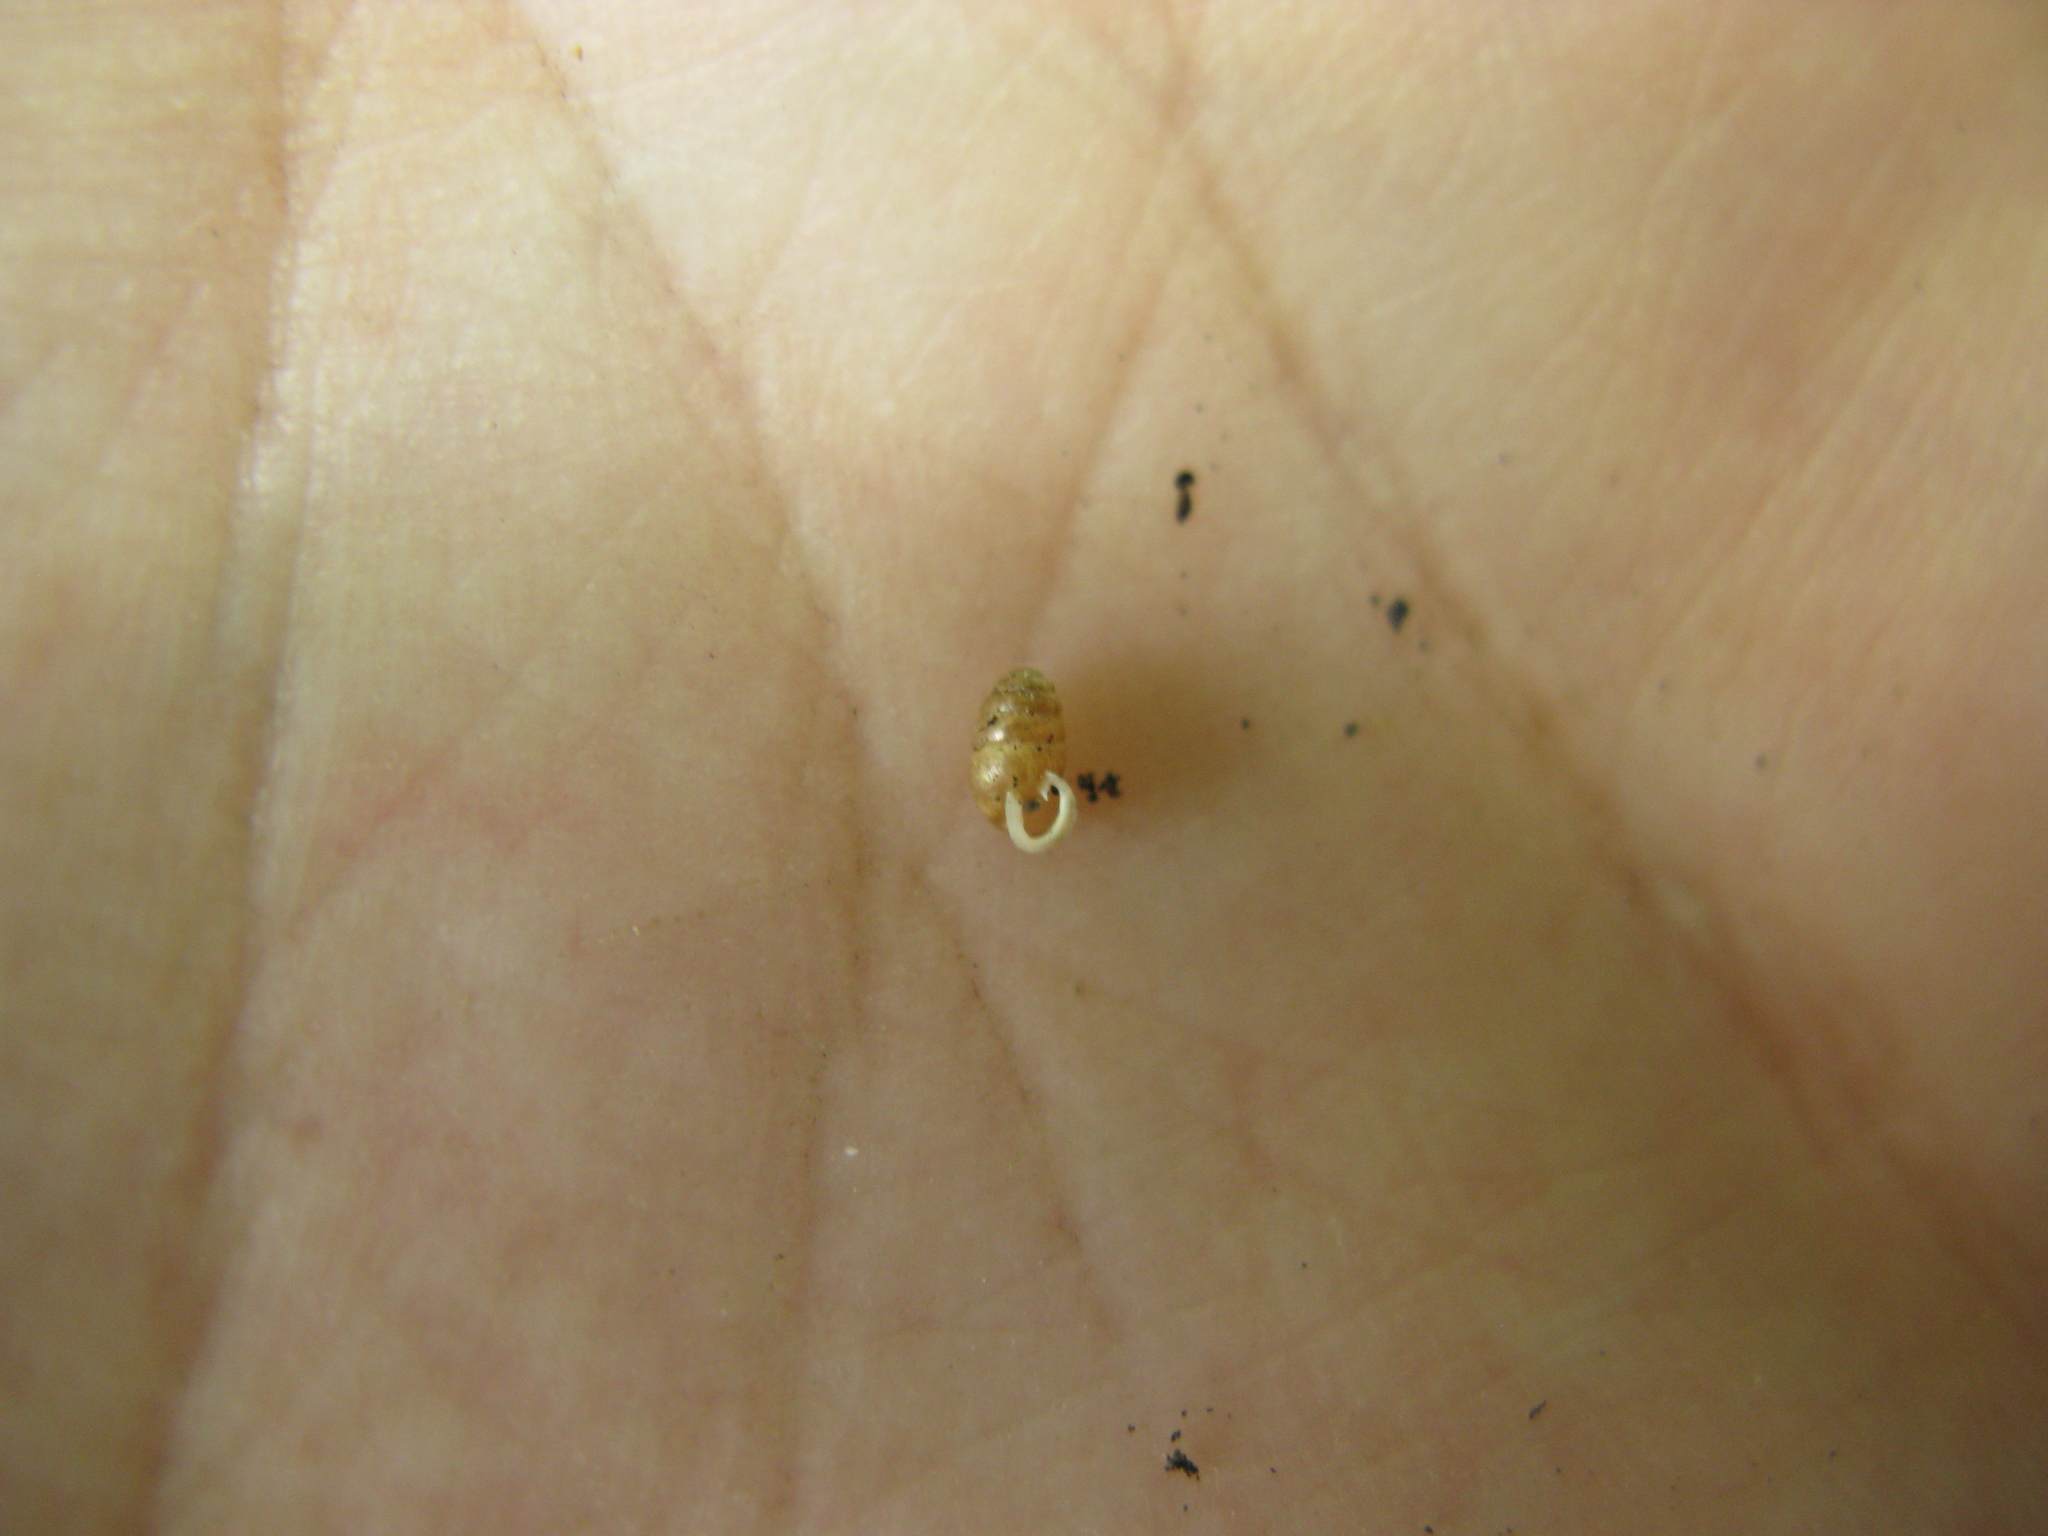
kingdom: Animalia
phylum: Mollusca
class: Gastropoda
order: Stylommatophora
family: Lauriidae
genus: Lauria
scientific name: Lauria cylindracea
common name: Common chrysalis snail
